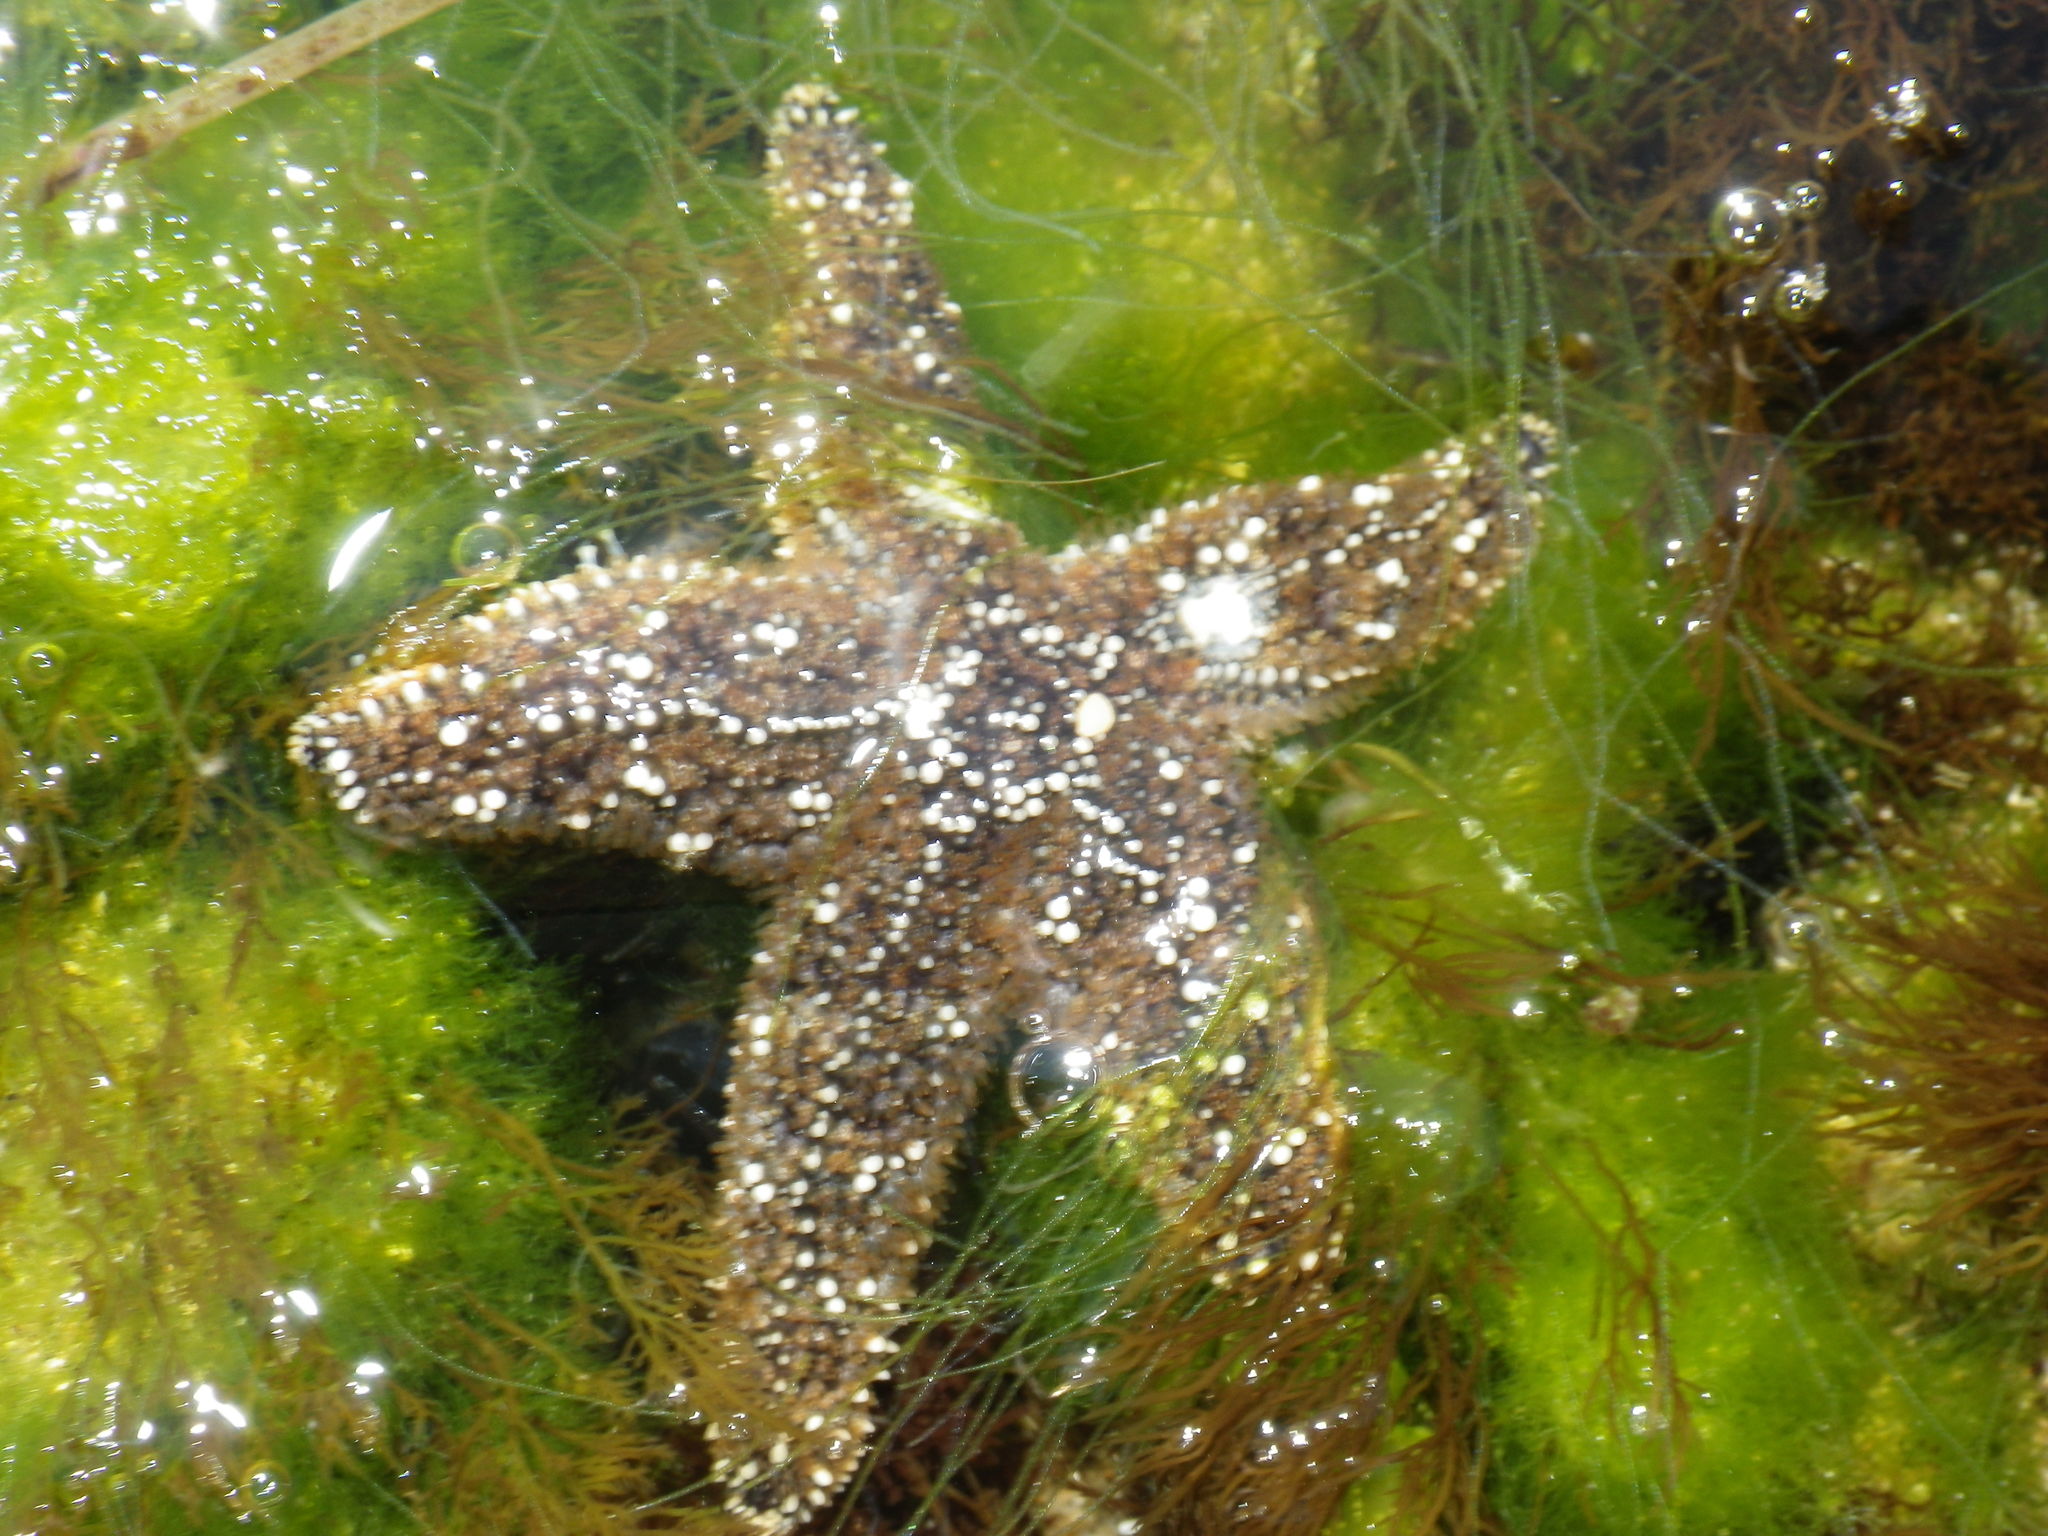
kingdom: Animalia
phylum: Echinodermata
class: Asteroidea
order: Forcipulatida
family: Asteriidae
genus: Pisaster
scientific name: Pisaster ochraceus
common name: Ochre stars
